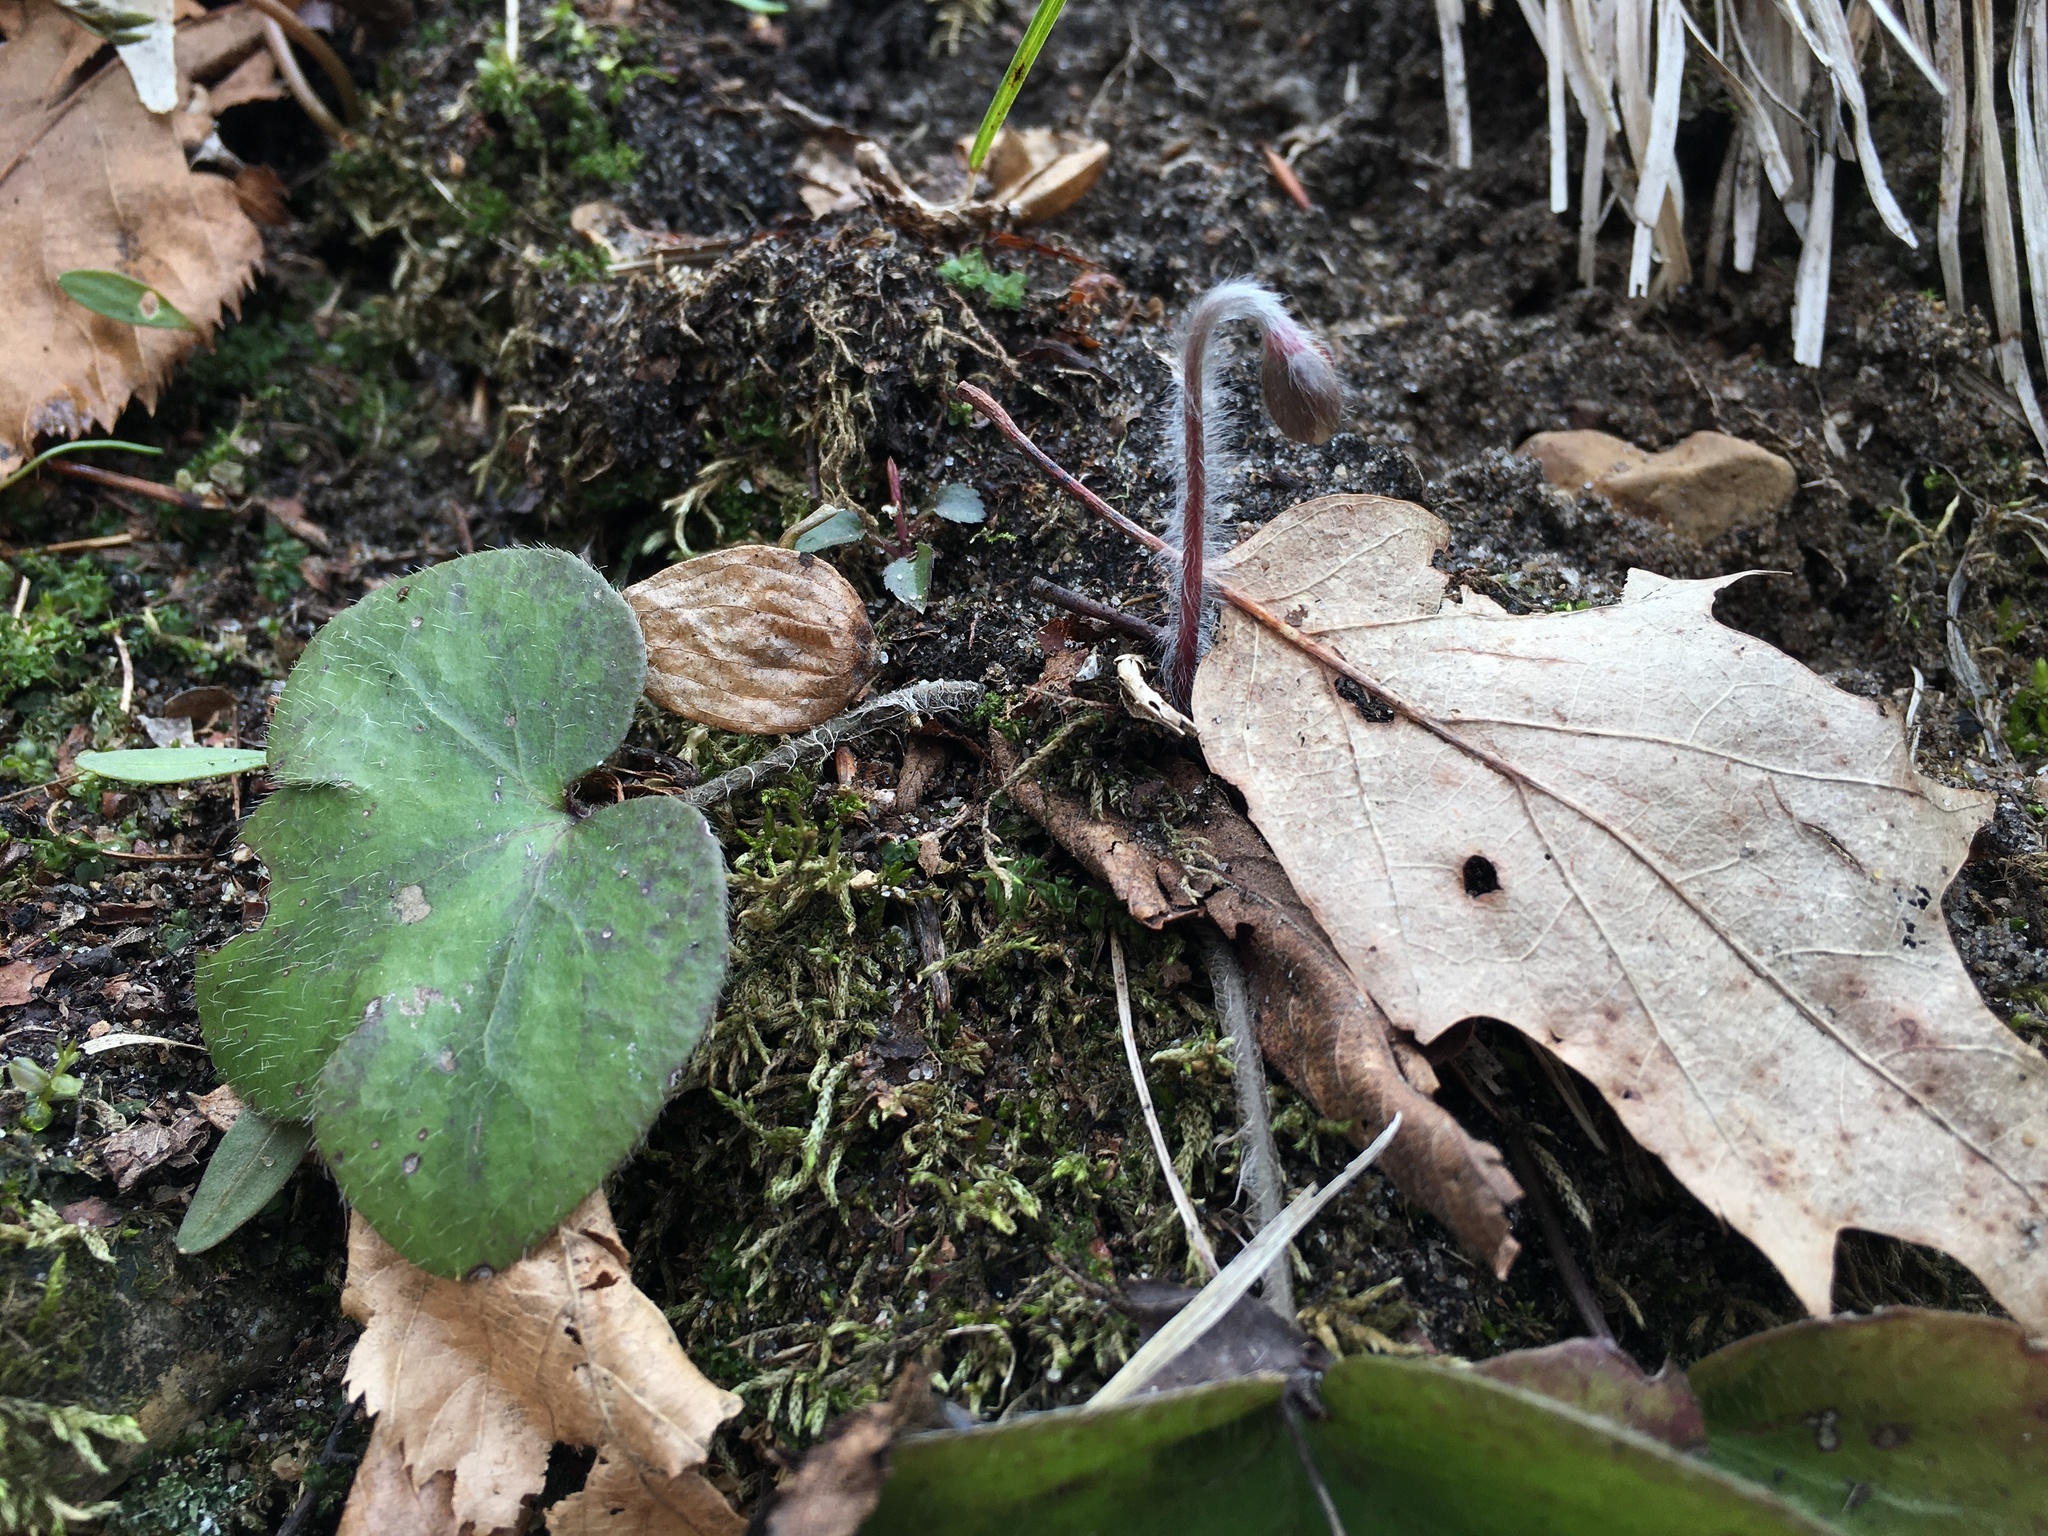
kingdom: Plantae
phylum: Tracheophyta
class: Magnoliopsida
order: Ranunculales
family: Ranunculaceae
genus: Hepatica
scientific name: Hepatica americana
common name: American hepatica
